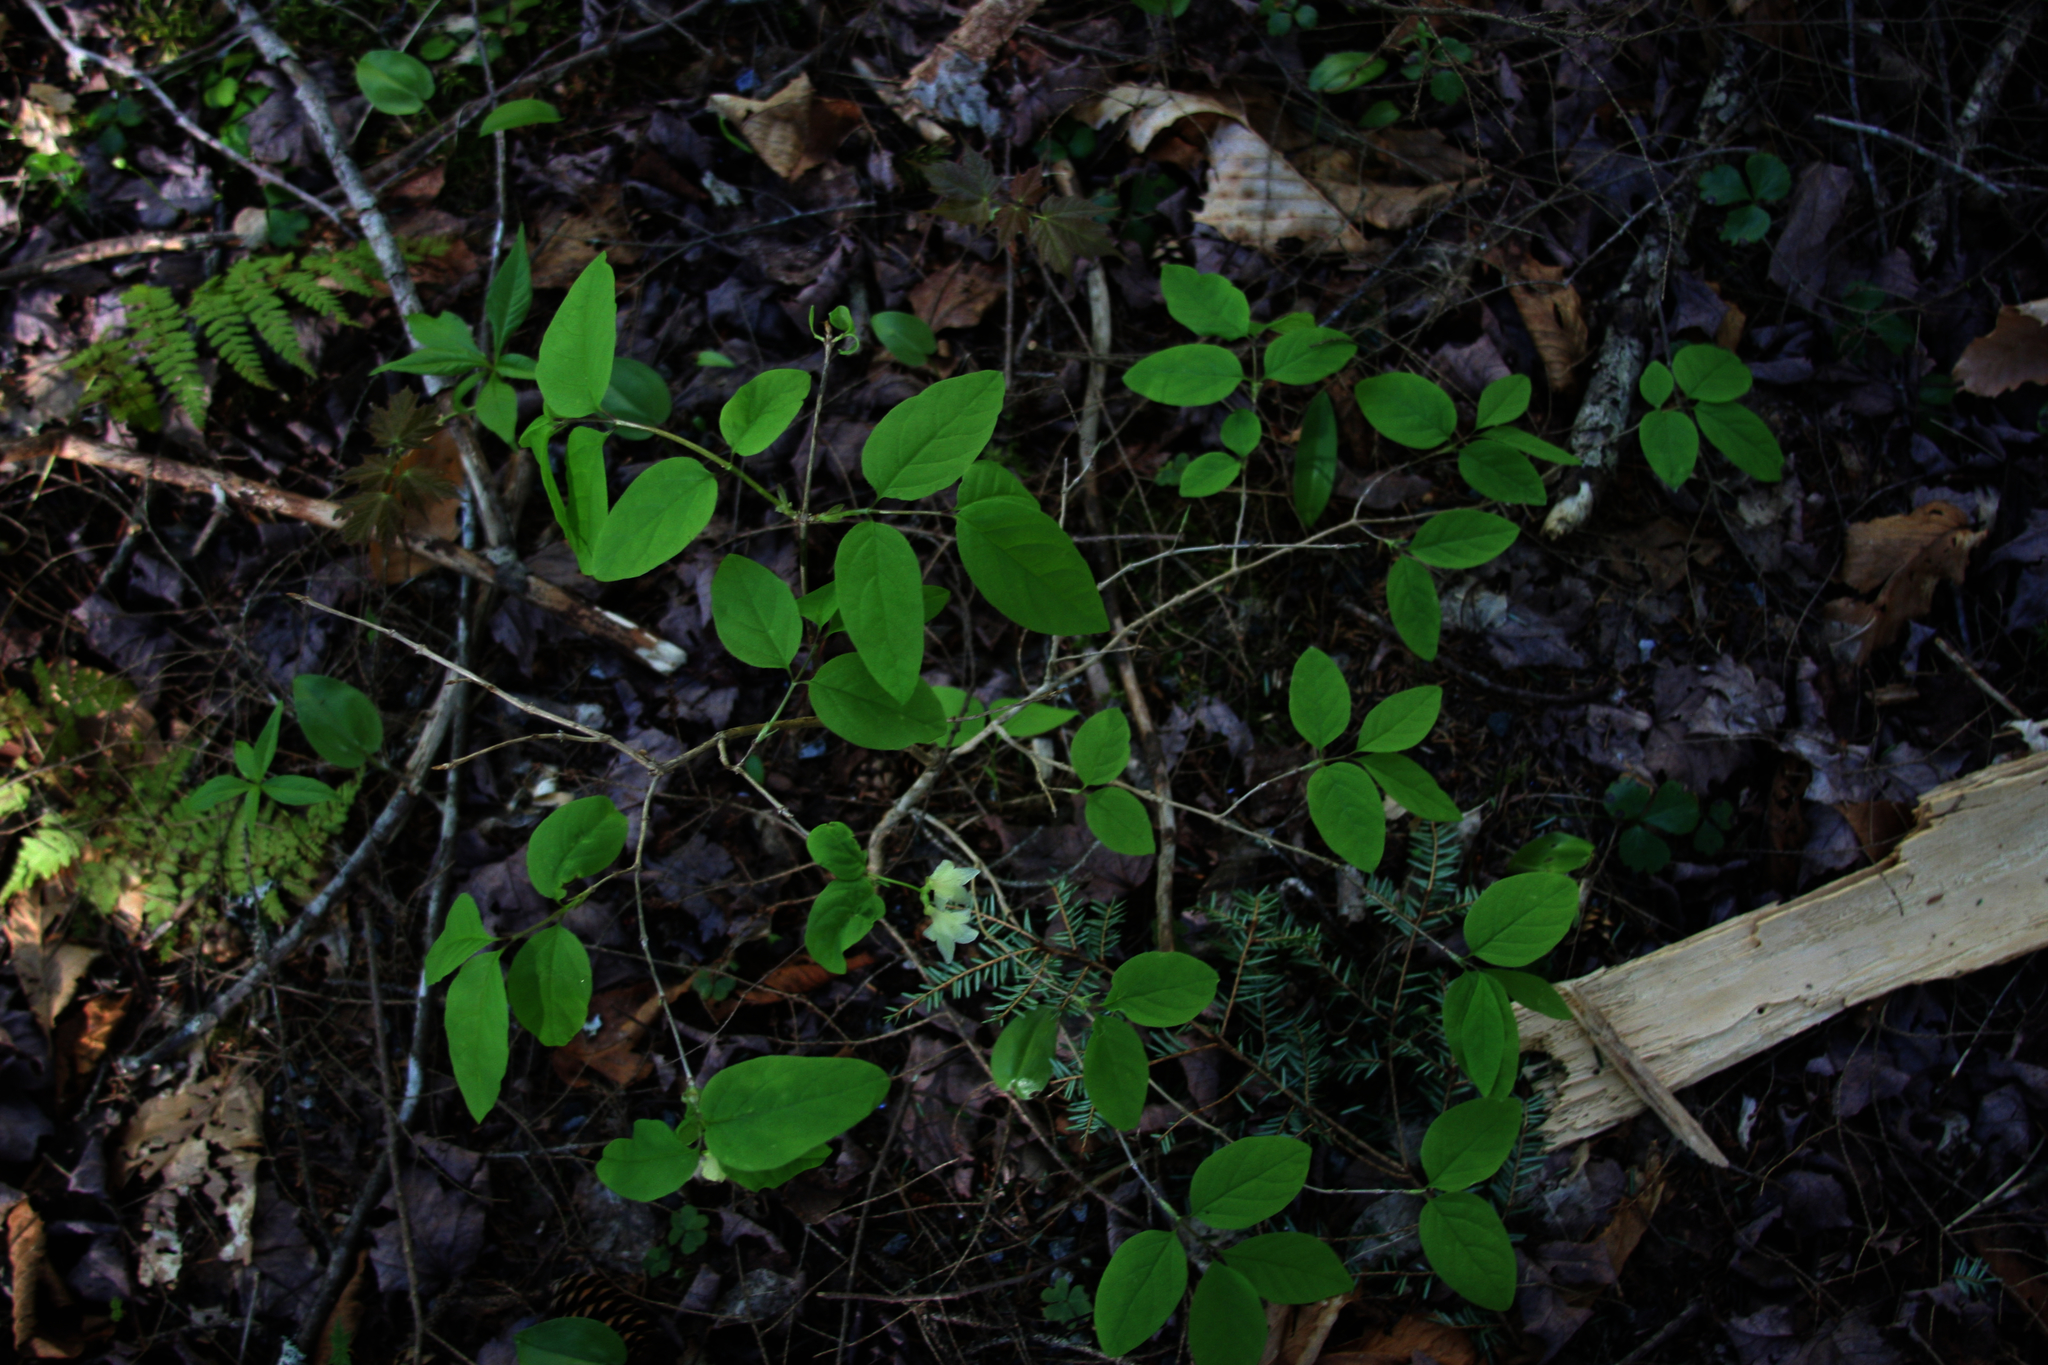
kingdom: Plantae
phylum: Tracheophyta
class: Magnoliopsida
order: Dipsacales
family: Caprifoliaceae
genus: Lonicera
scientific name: Lonicera canadensis
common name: American fly-honeysuckle
